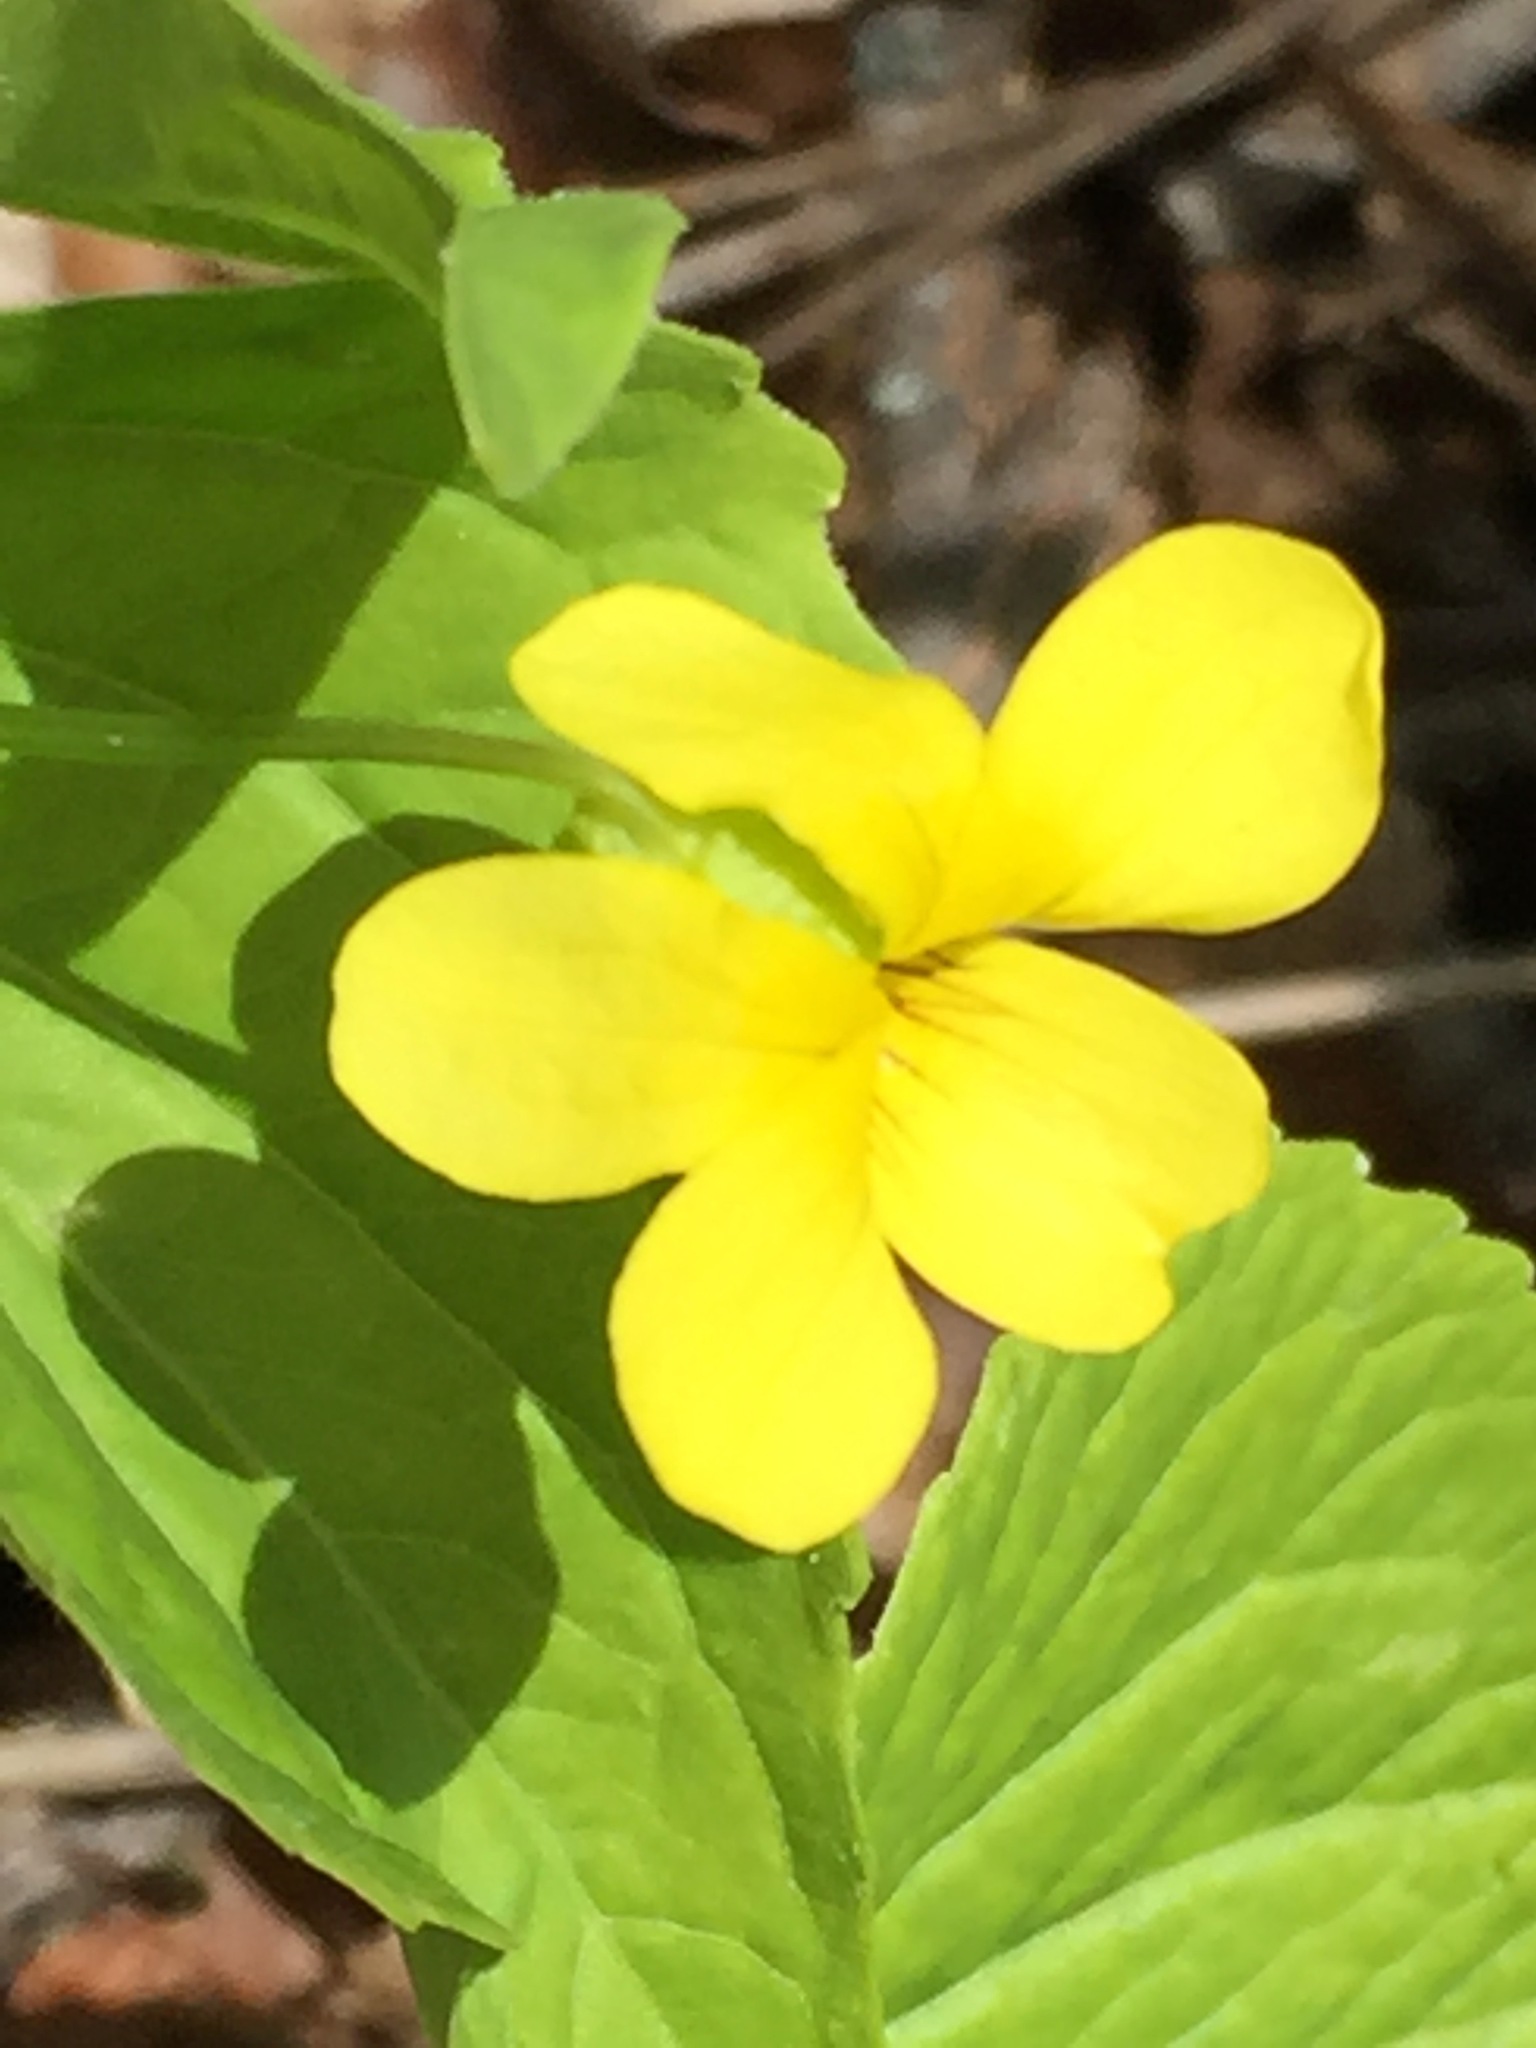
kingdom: Plantae
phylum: Tracheophyta
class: Magnoliopsida
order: Malpighiales
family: Violaceae
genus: Viola
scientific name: Viola eriocarpa
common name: Smooth yellow violet
